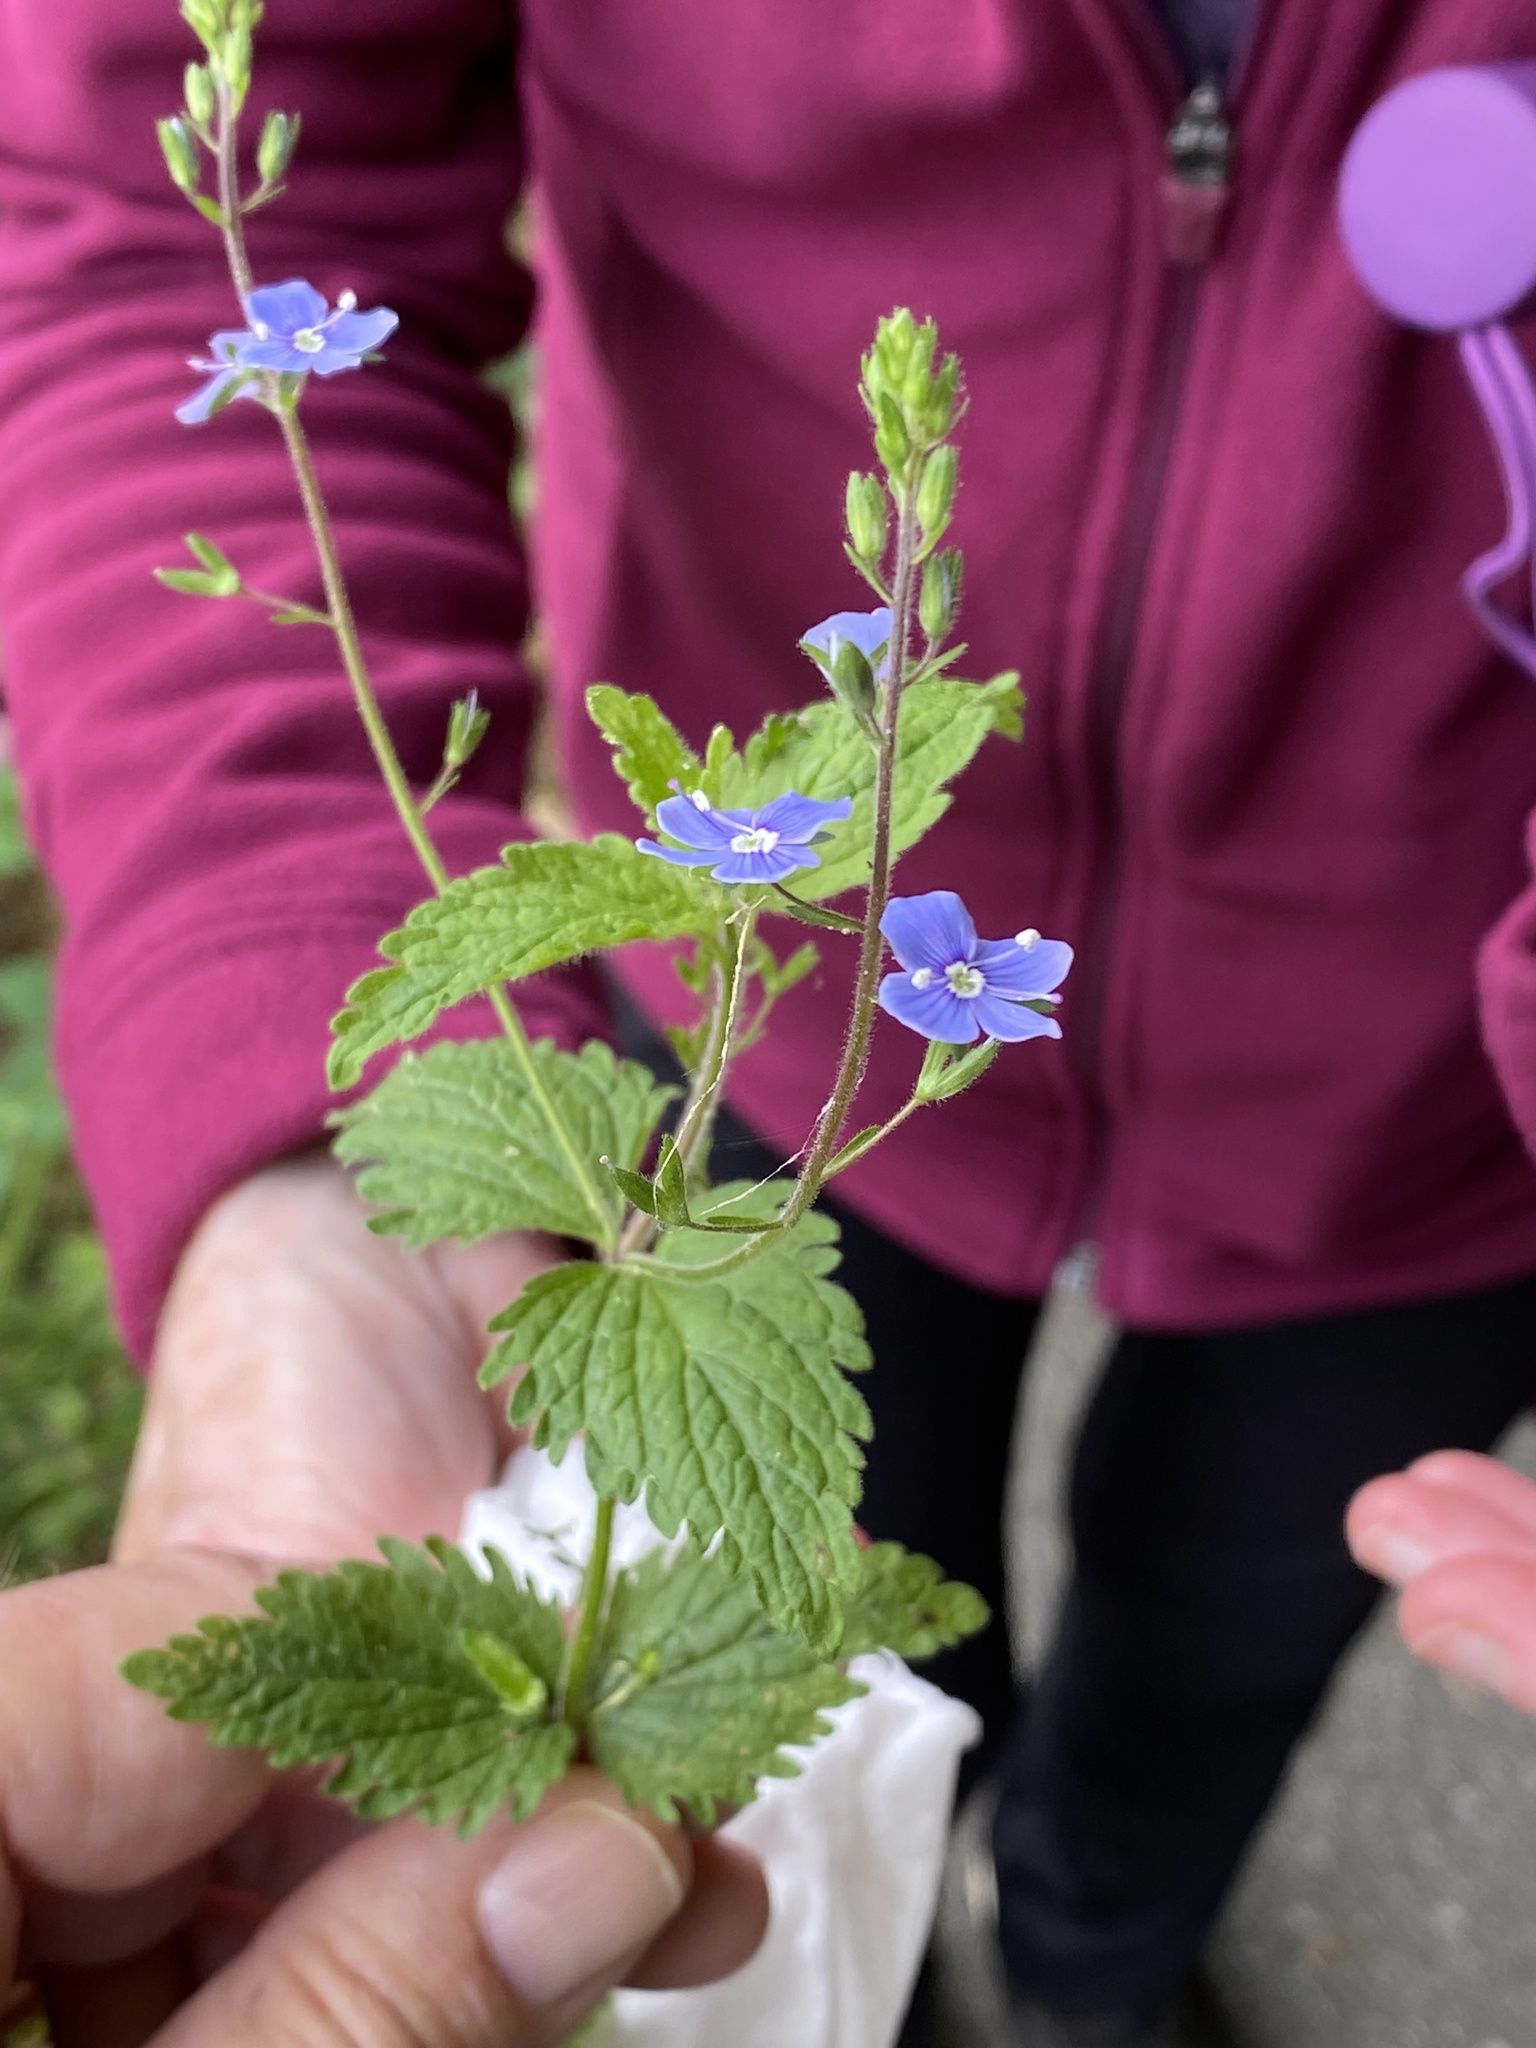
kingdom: Plantae
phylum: Tracheophyta
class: Magnoliopsida
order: Lamiales
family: Plantaginaceae
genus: Veronica
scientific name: Veronica chamaedrys
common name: Germander speedwell
